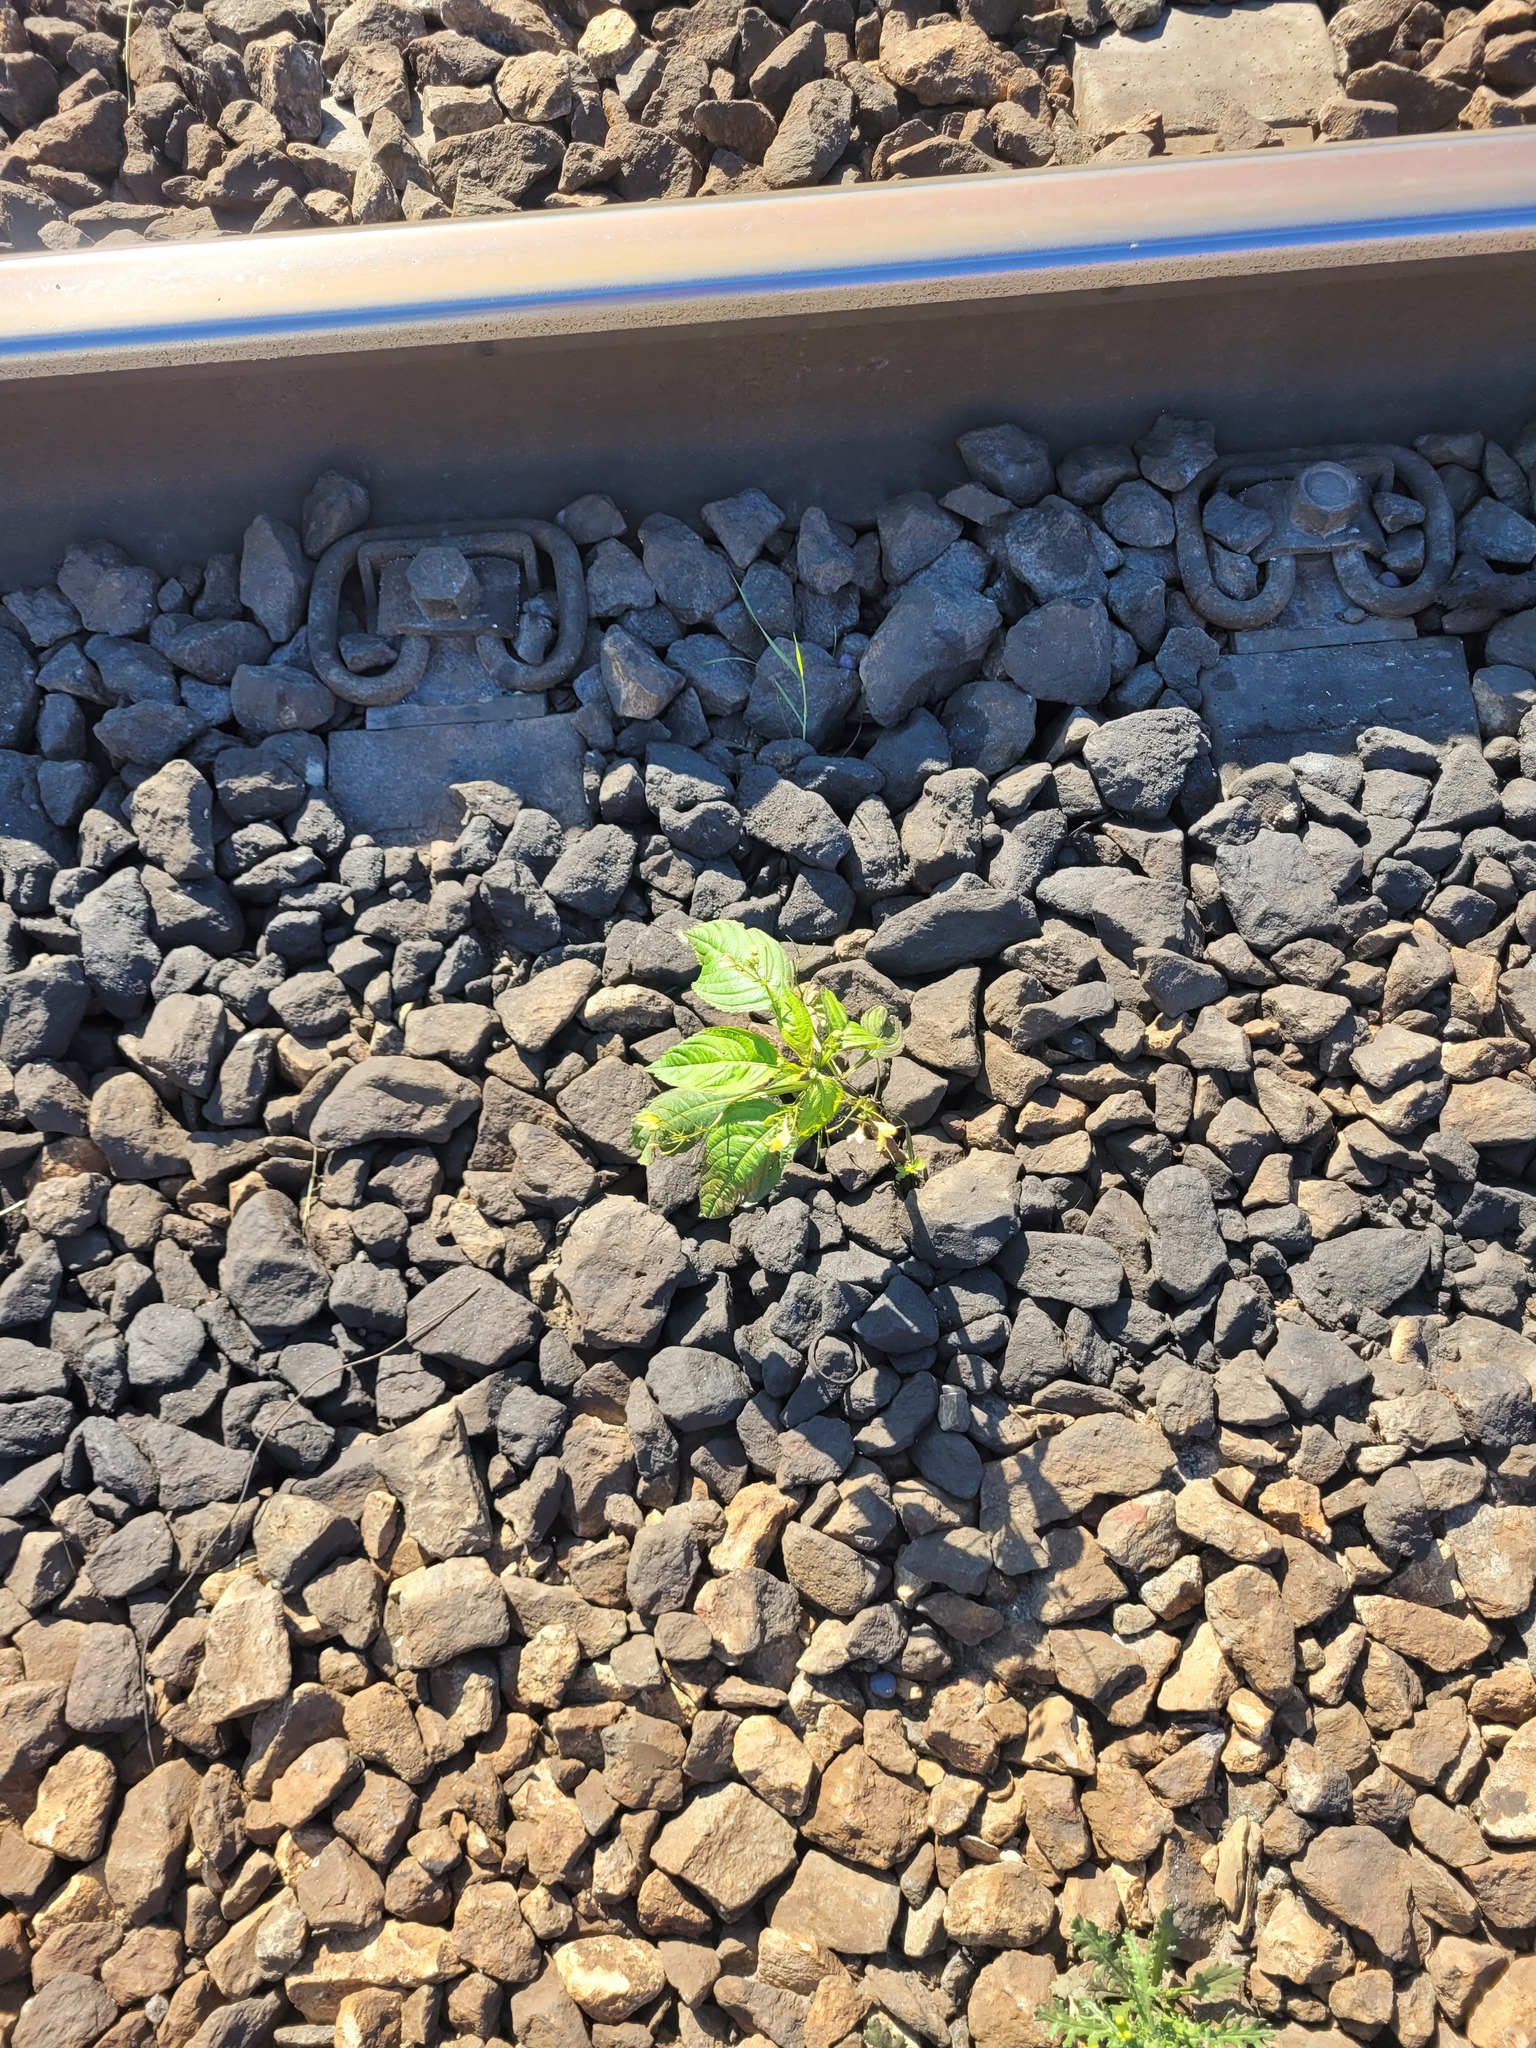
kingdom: Plantae
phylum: Tracheophyta
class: Magnoliopsida
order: Ericales
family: Balsaminaceae
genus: Impatiens
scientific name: Impatiens parviflora
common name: Small balsam
